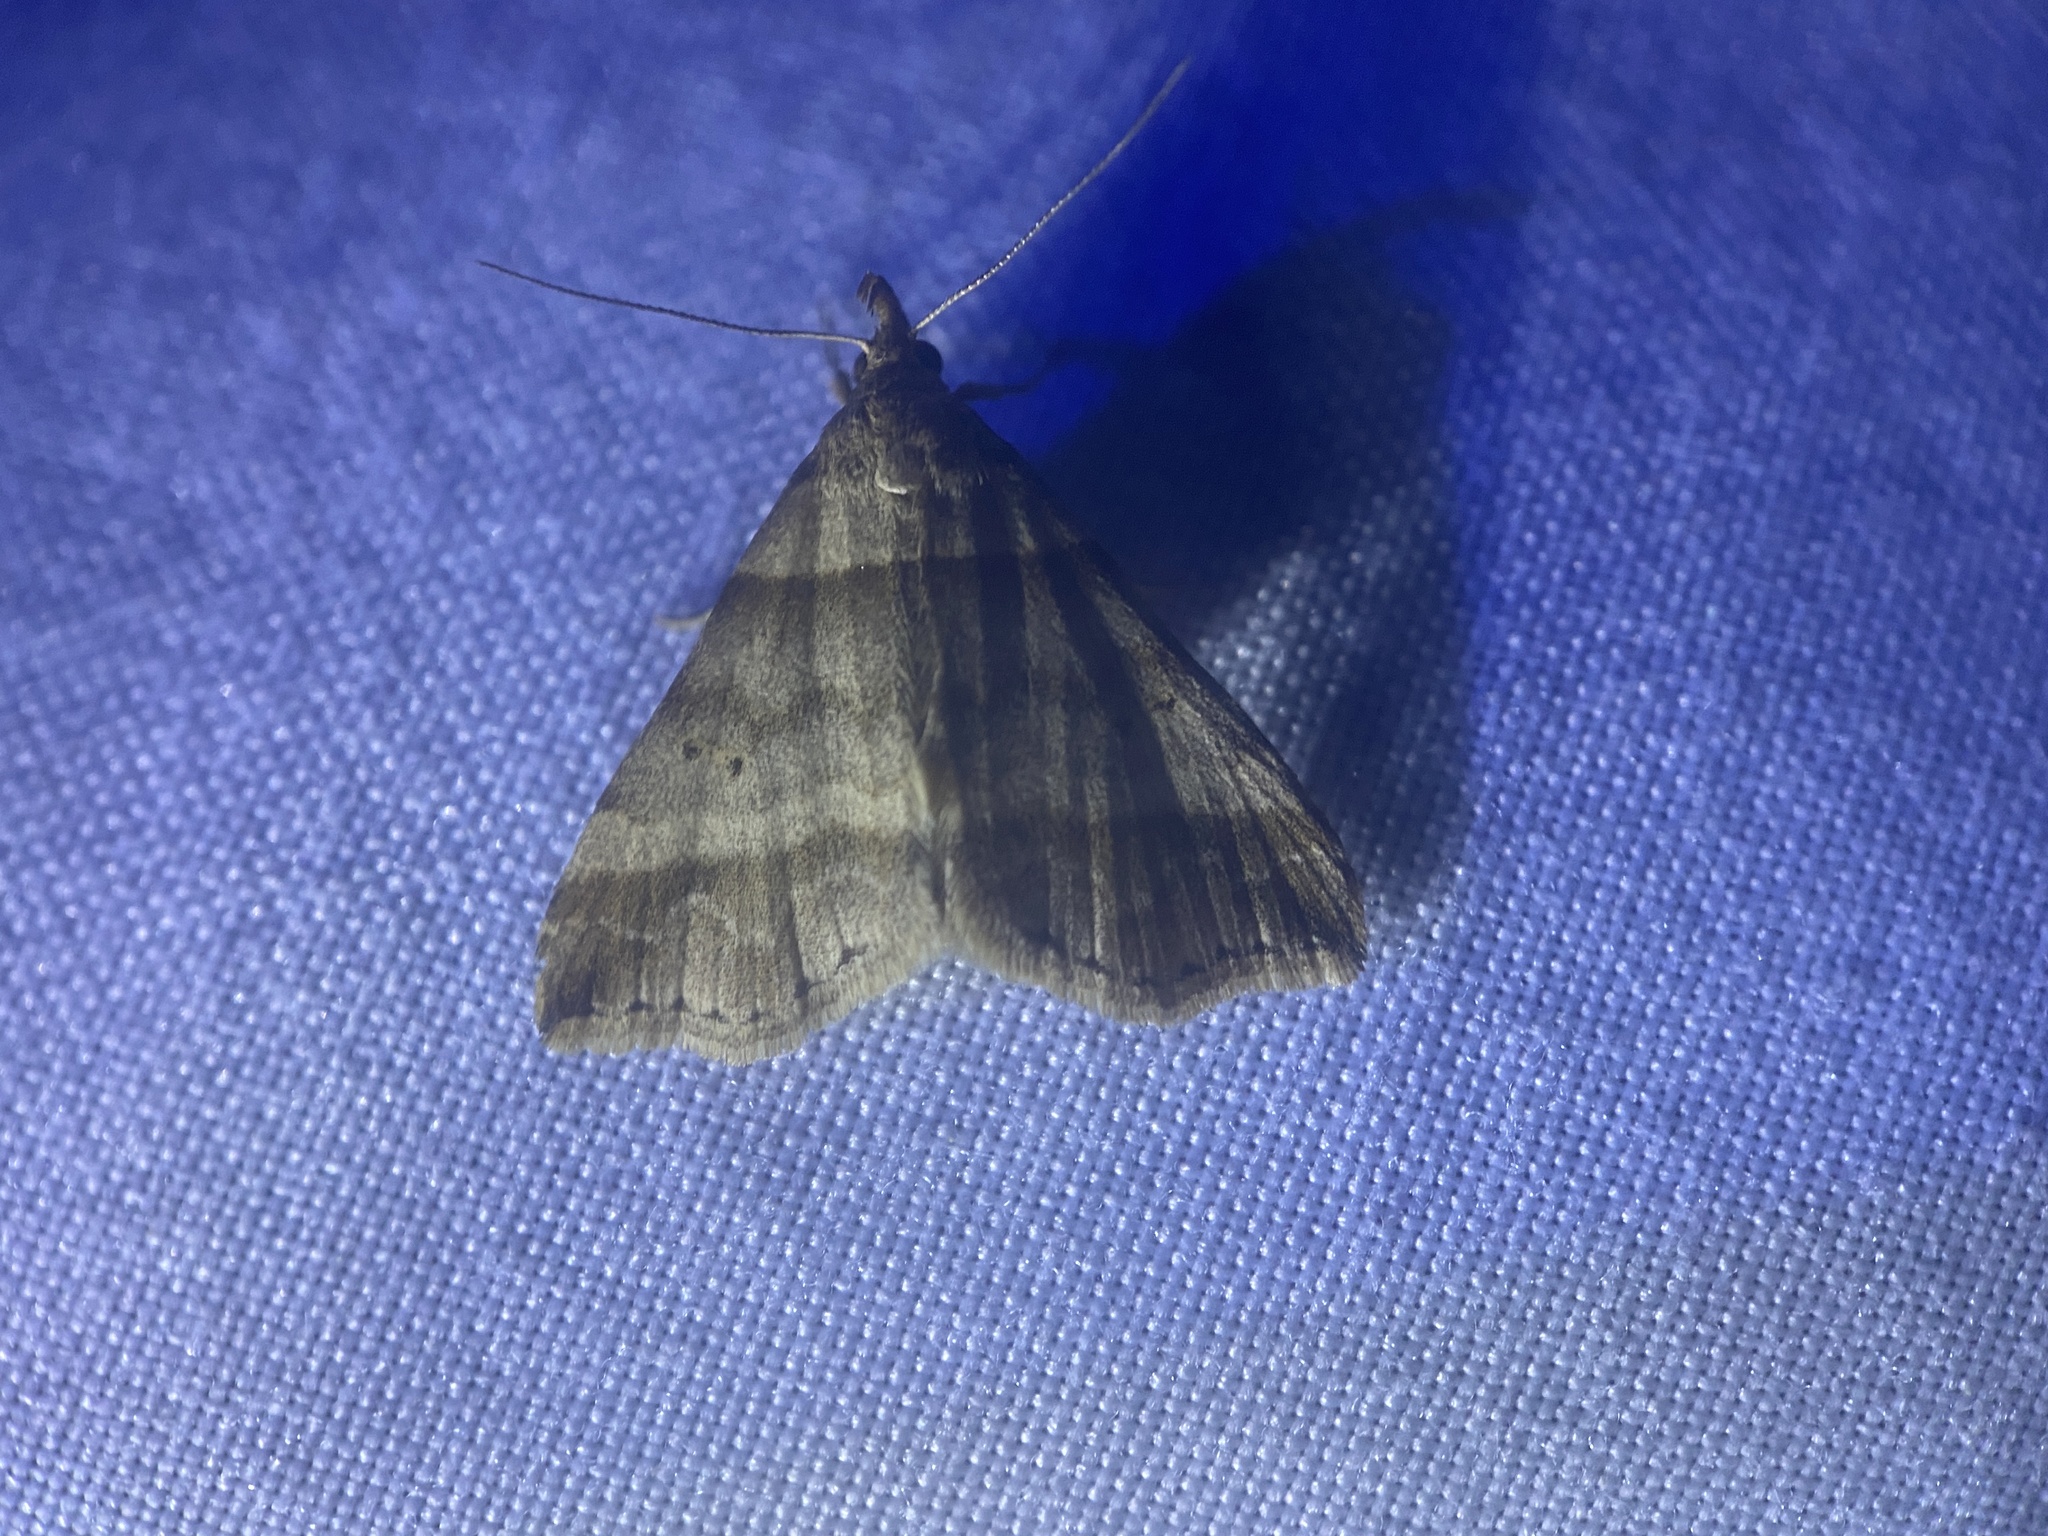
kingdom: Animalia
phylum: Arthropoda
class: Insecta
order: Lepidoptera
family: Erebidae
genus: Phaeolita
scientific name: Phaeolita pyramusalis
